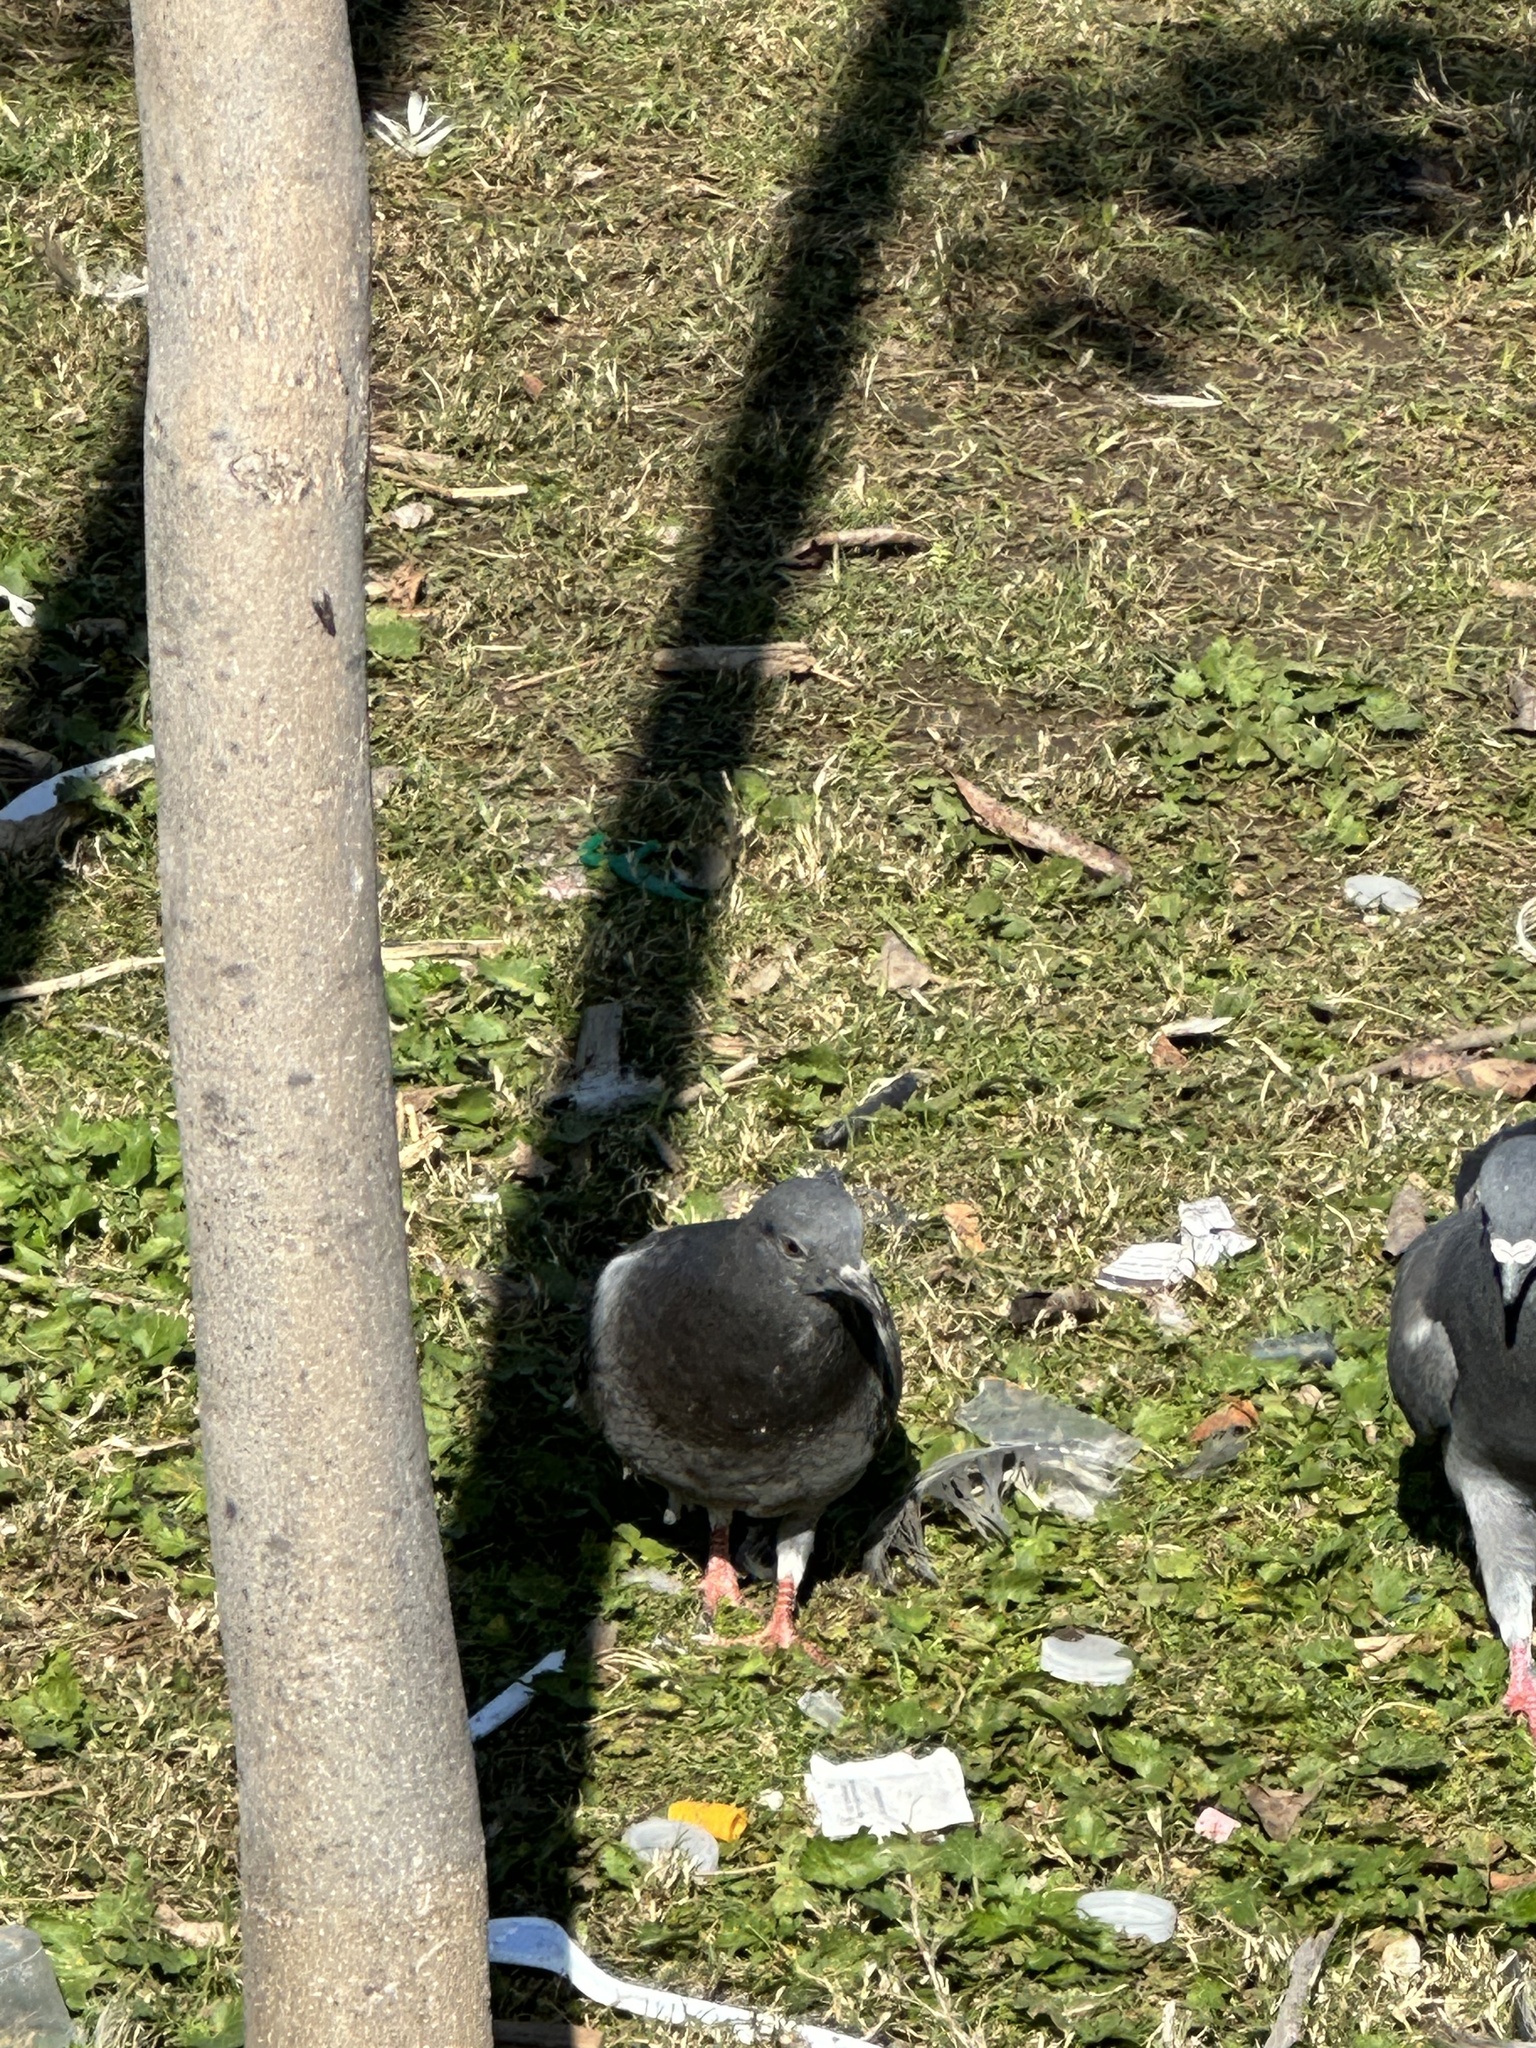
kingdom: Animalia
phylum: Chordata
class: Aves
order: Columbiformes
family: Columbidae
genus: Columba
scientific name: Columba livia
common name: Rock pigeon
